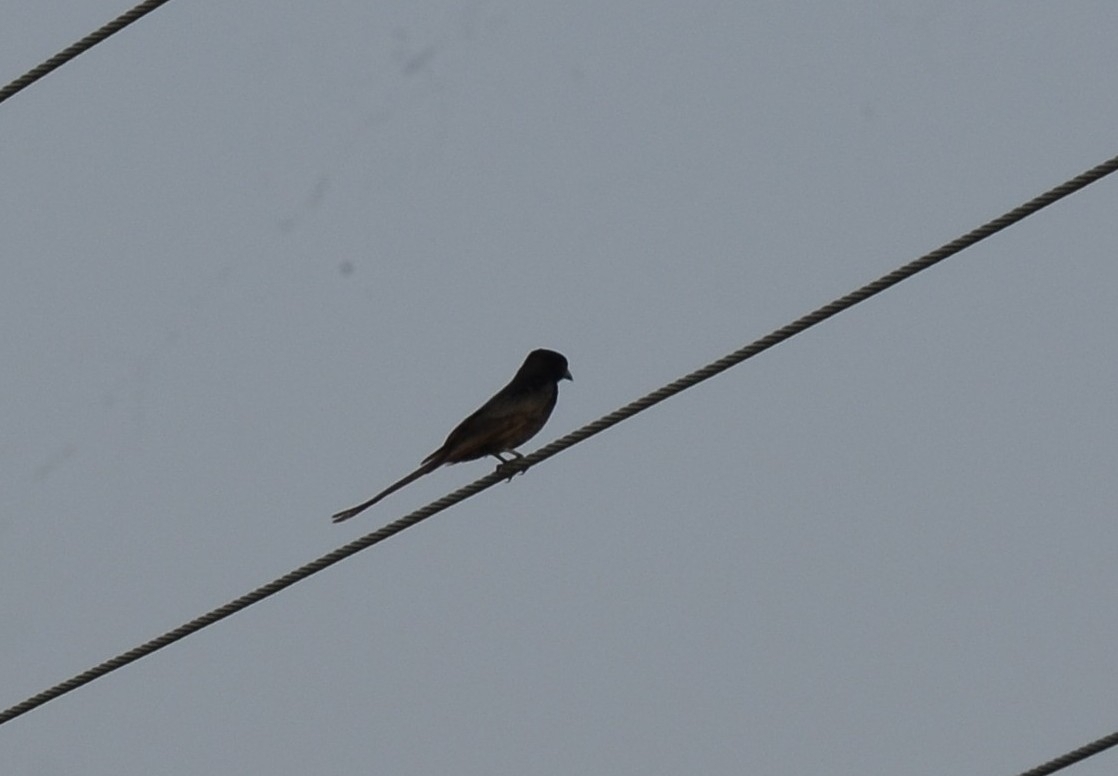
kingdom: Animalia
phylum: Chordata
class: Aves
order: Passeriformes
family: Dicruridae
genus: Dicrurus
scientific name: Dicrurus macrocercus
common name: Black drongo
